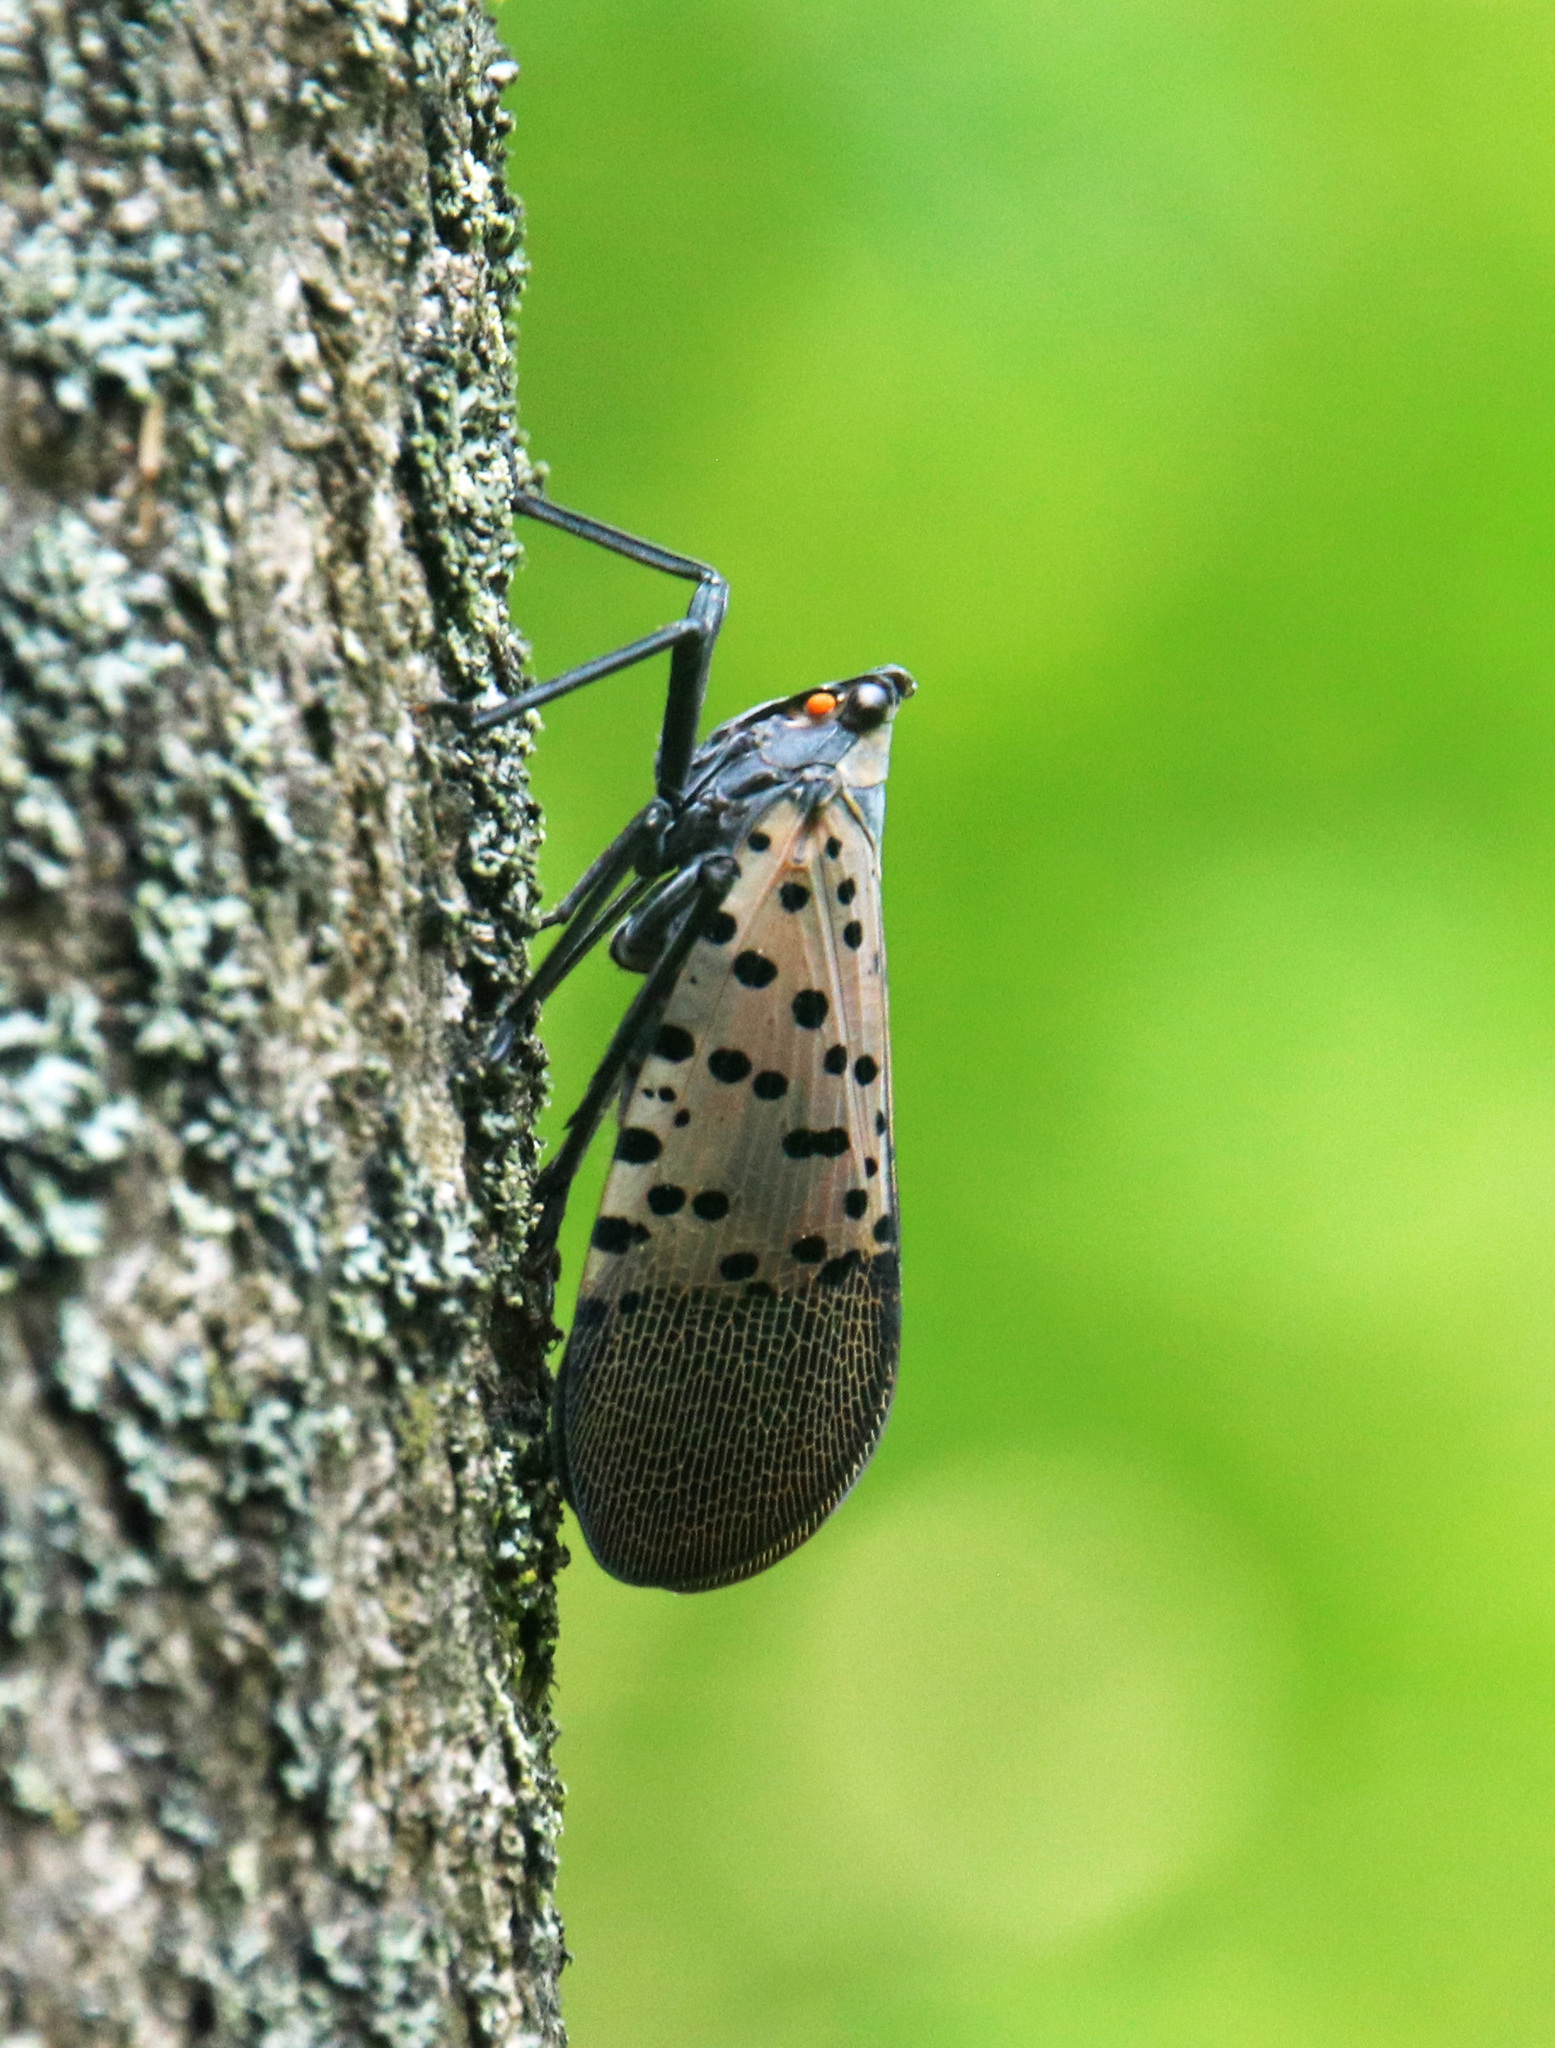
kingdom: Animalia
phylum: Arthropoda
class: Insecta
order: Hemiptera
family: Fulgoridae
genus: Lycorma
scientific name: Lycorma delicatula
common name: Spotted lanternfly
